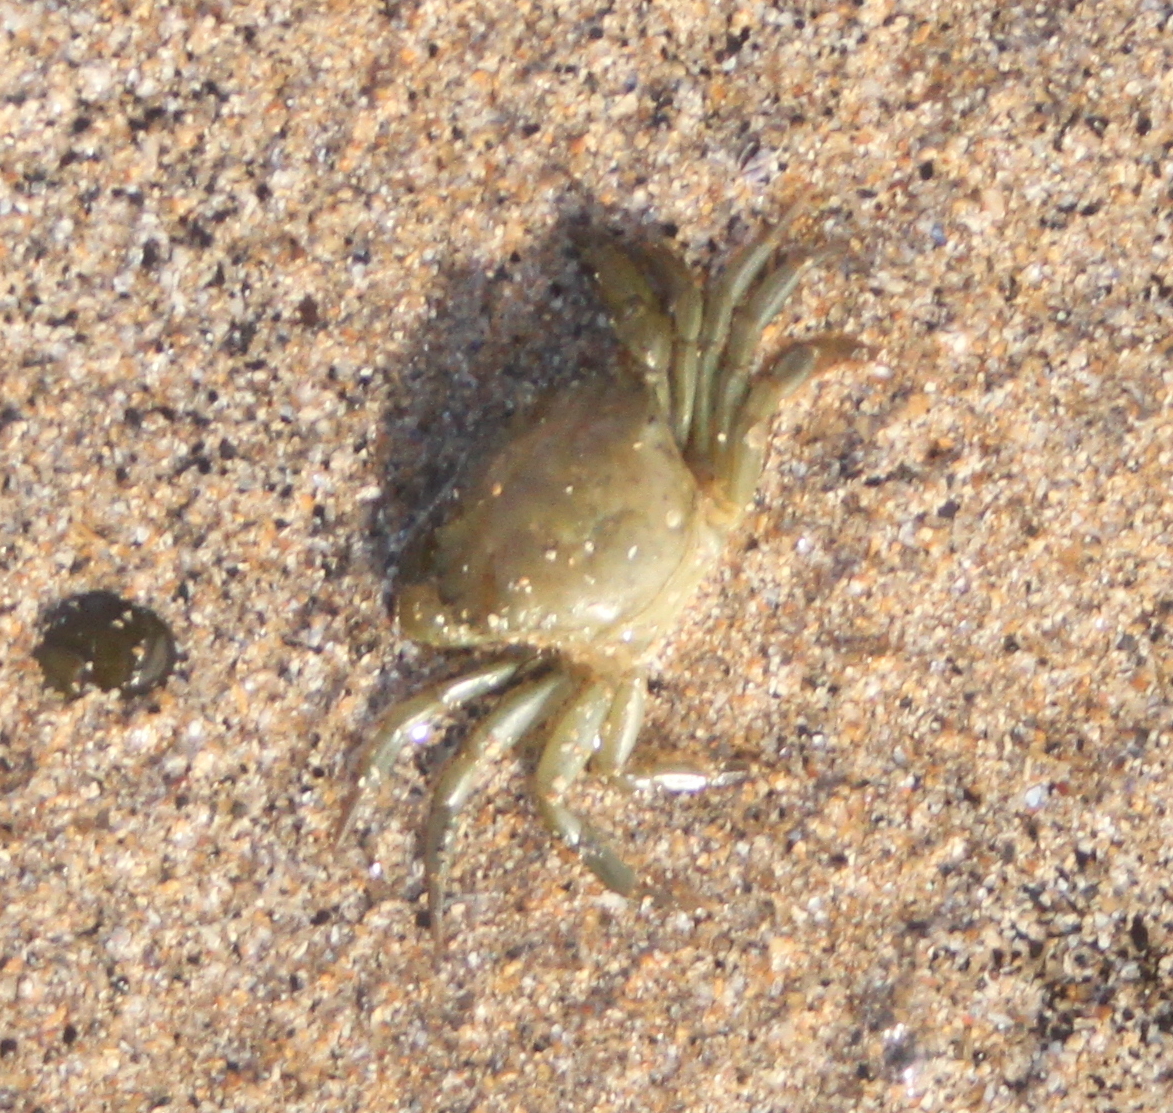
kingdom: Animalia
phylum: Arthropoda
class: Malacostraca
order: Decapoda
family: Carcinidae
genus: Carcinus
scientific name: Carcinus maenas
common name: European green crab
